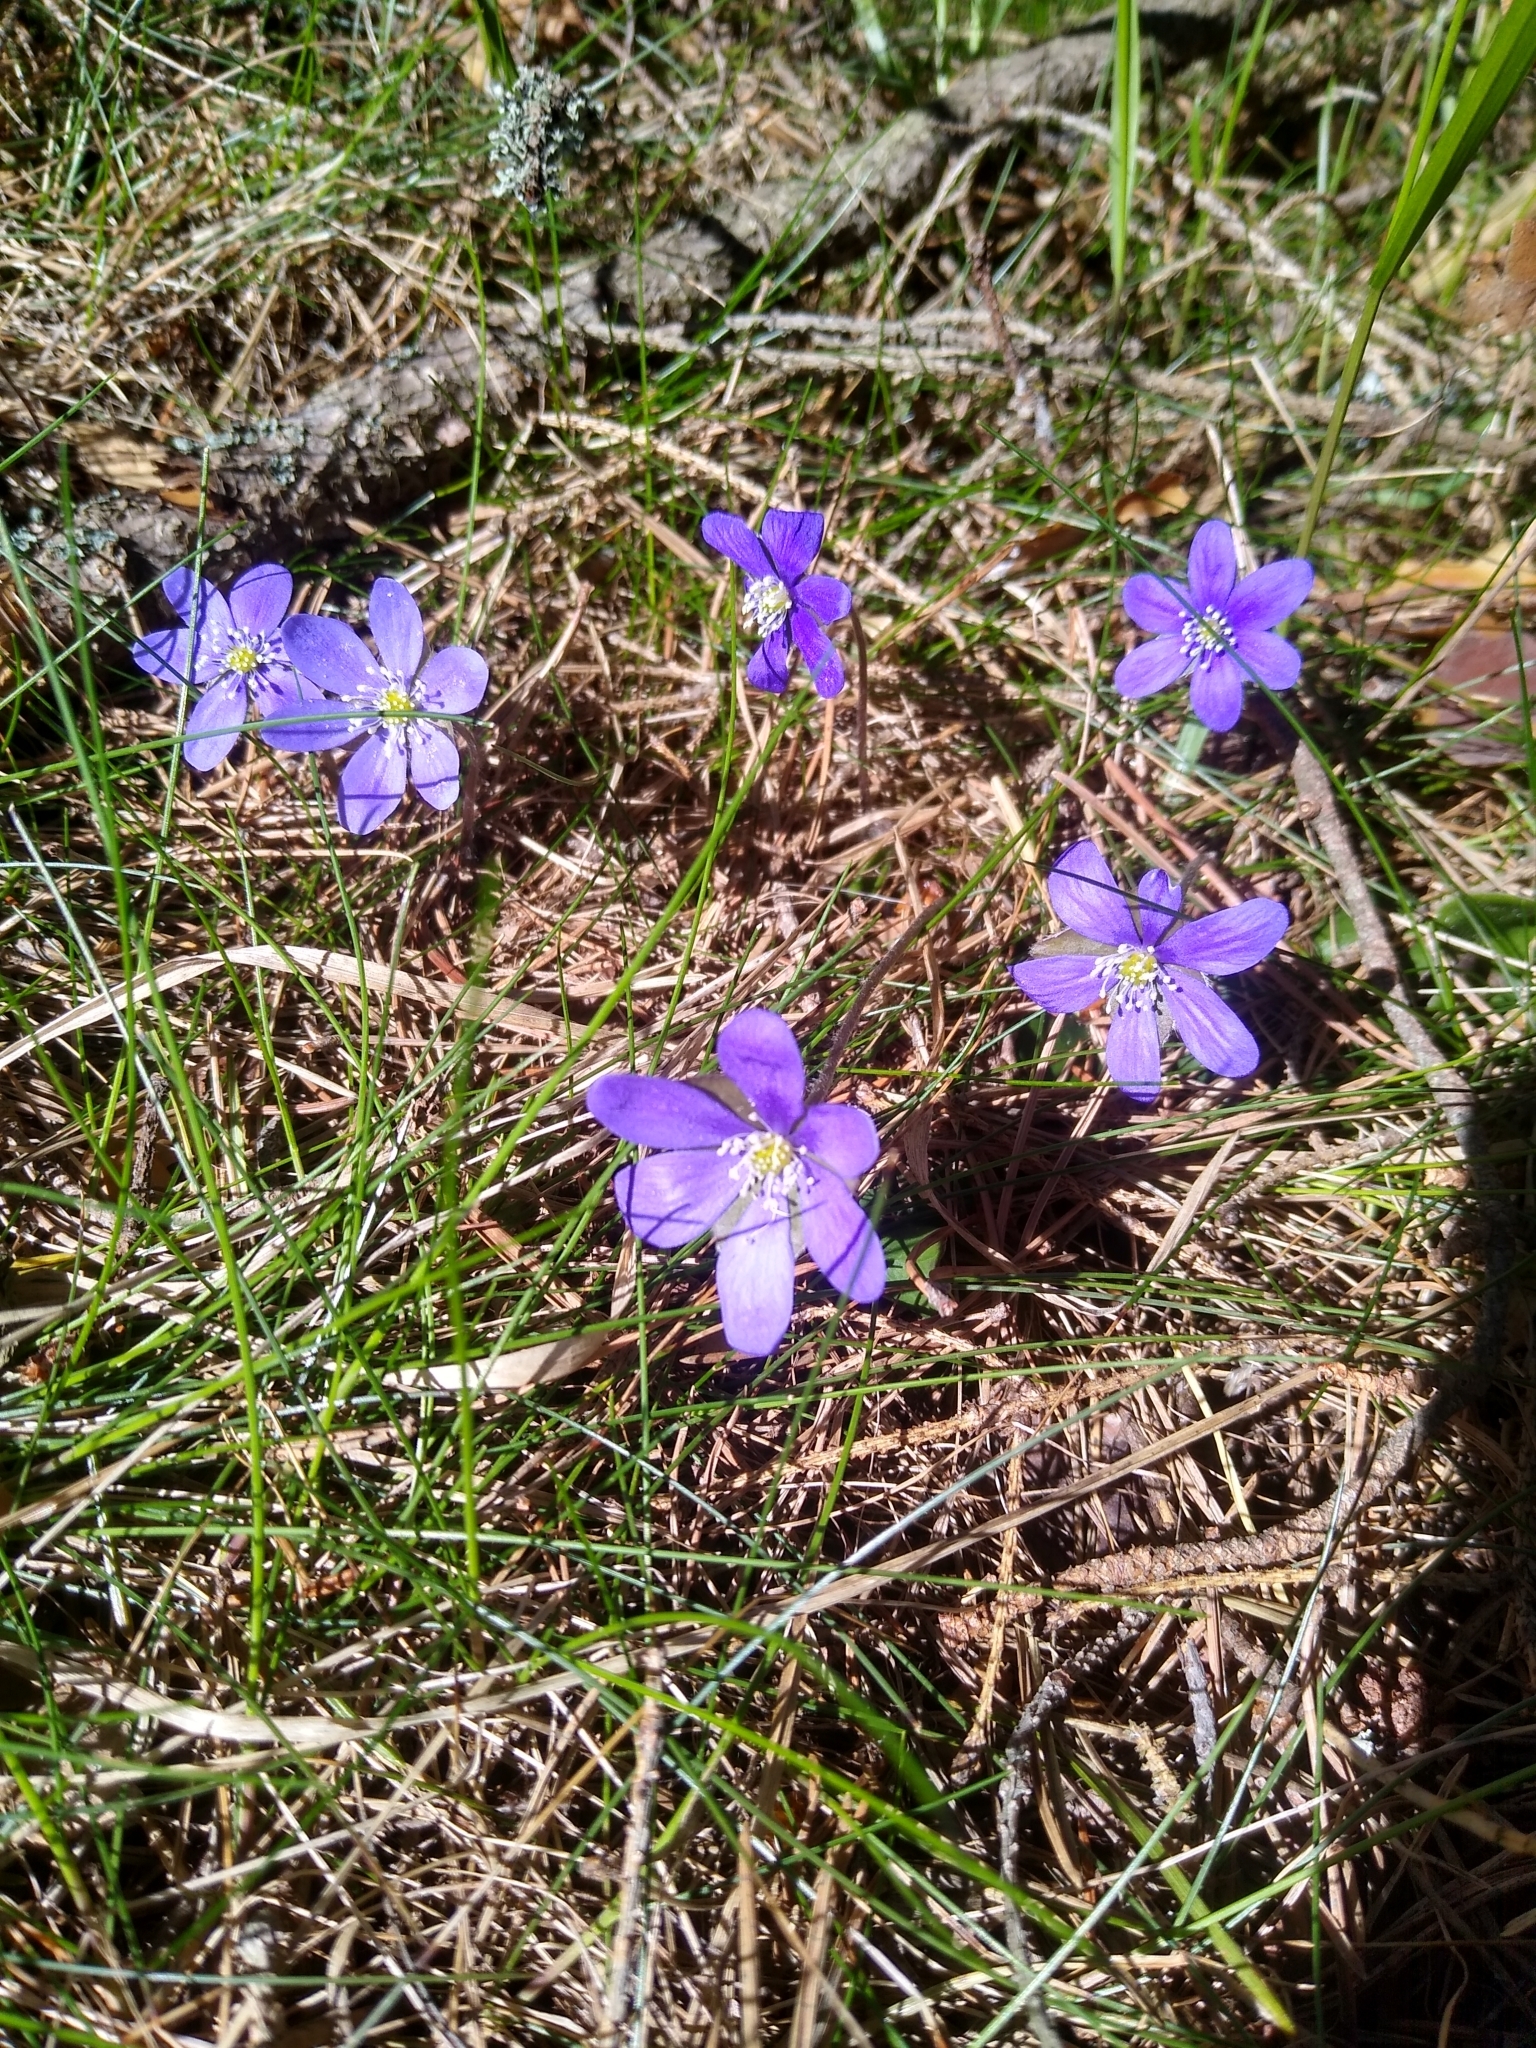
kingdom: Plantae
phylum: Tracheophyta
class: Magnoliopsida
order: Ranunculales
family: Ranunculaceae
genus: Hepatica
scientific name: Hepatica nobilis
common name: Liverleaf
